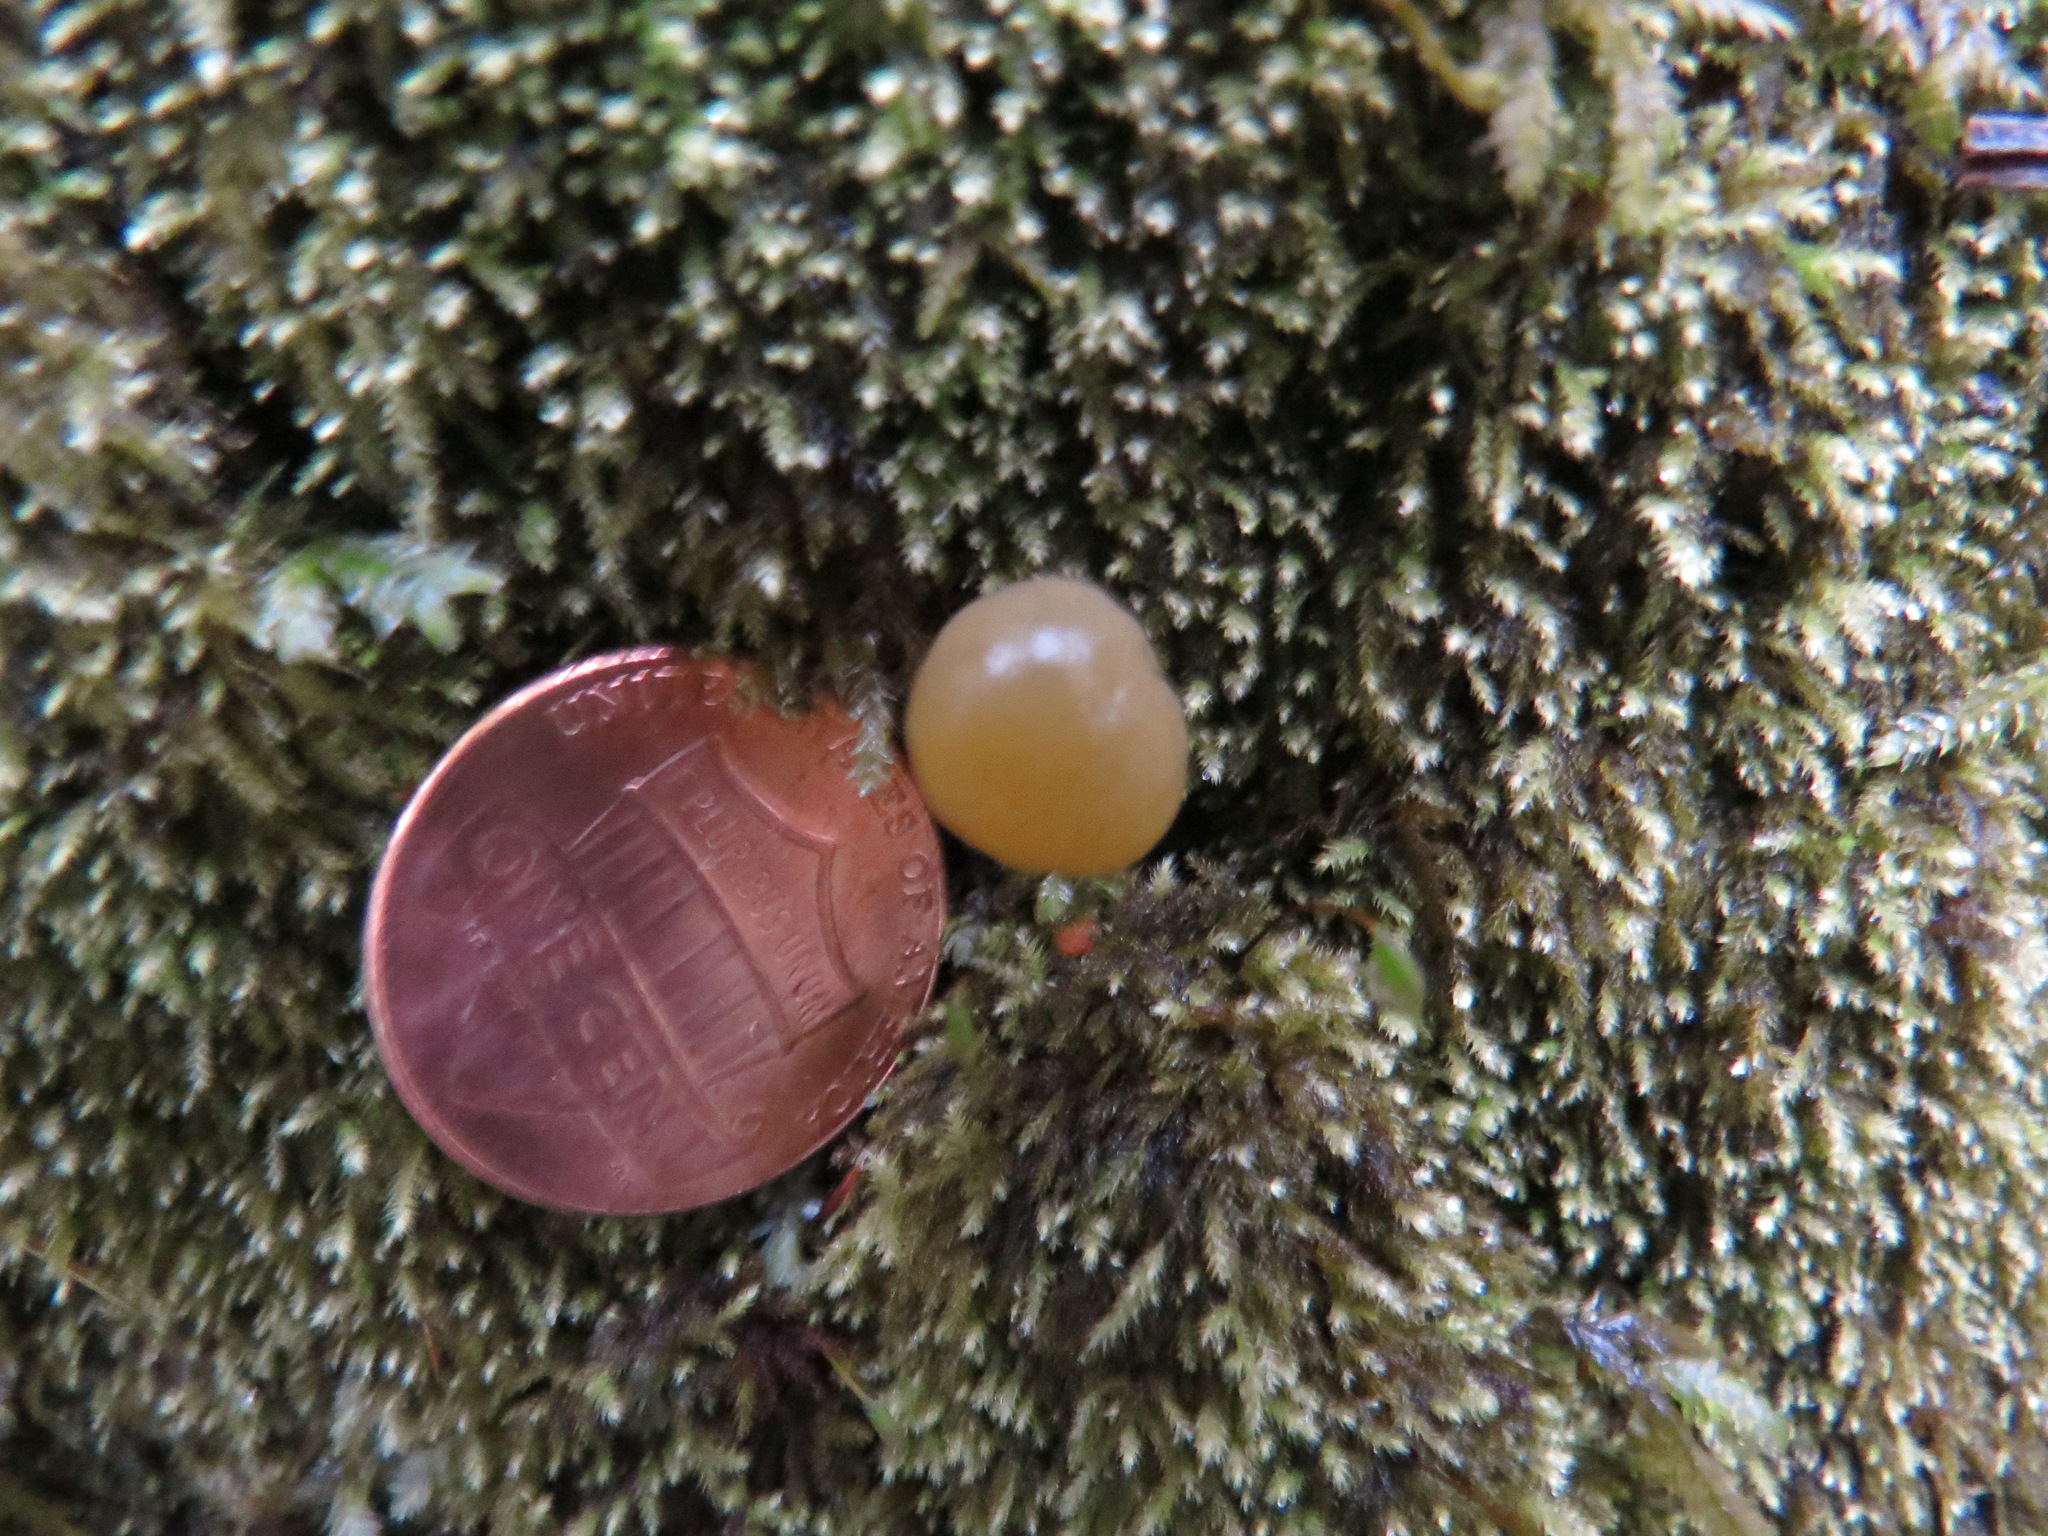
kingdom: Fungi
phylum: Ascomycota
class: Leotiomycetes
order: Leotiales
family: Leotiaceae
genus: Leotia
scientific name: Leotia lubrica
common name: Jellybaby
